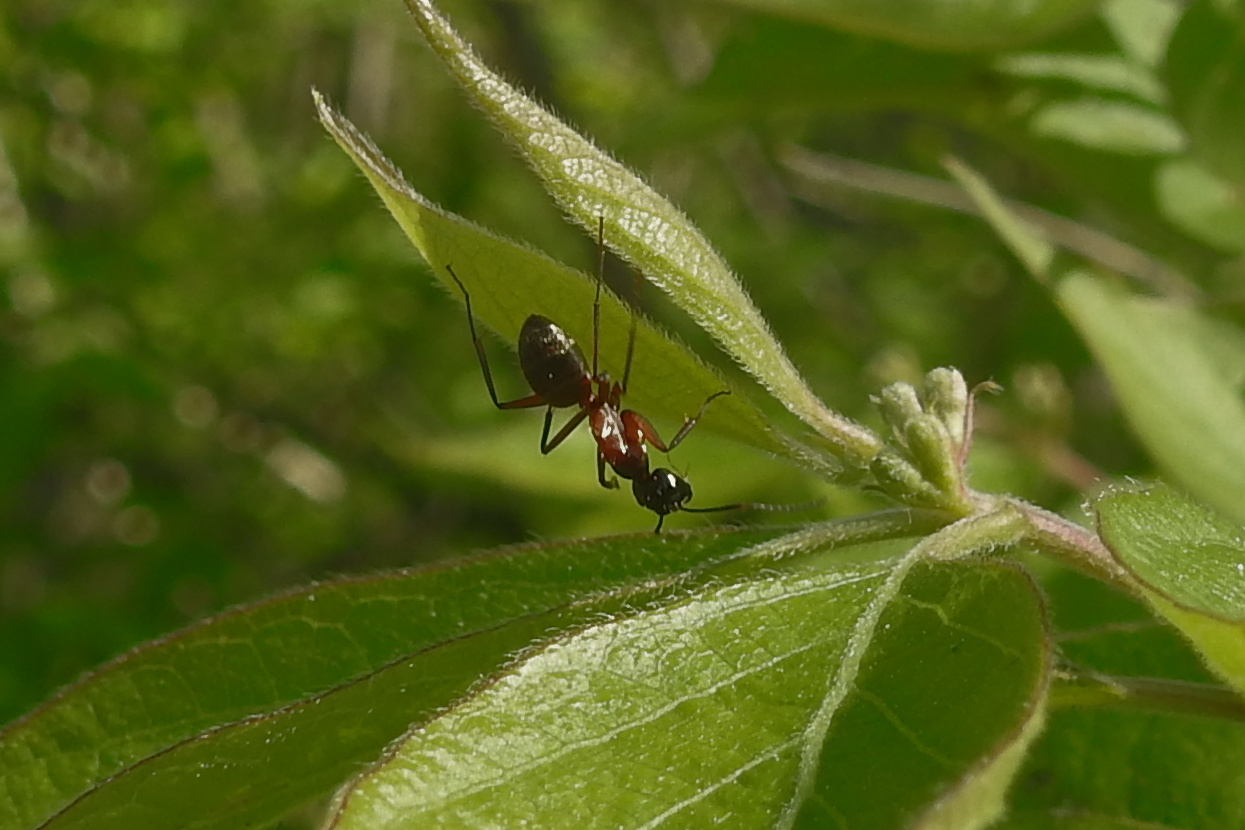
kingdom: Animalia
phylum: Arthropoda
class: Insecta
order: Hymenoptera
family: Formicidae
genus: Camponotus
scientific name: Camponotus chromaiodes
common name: Red carpenter ant
